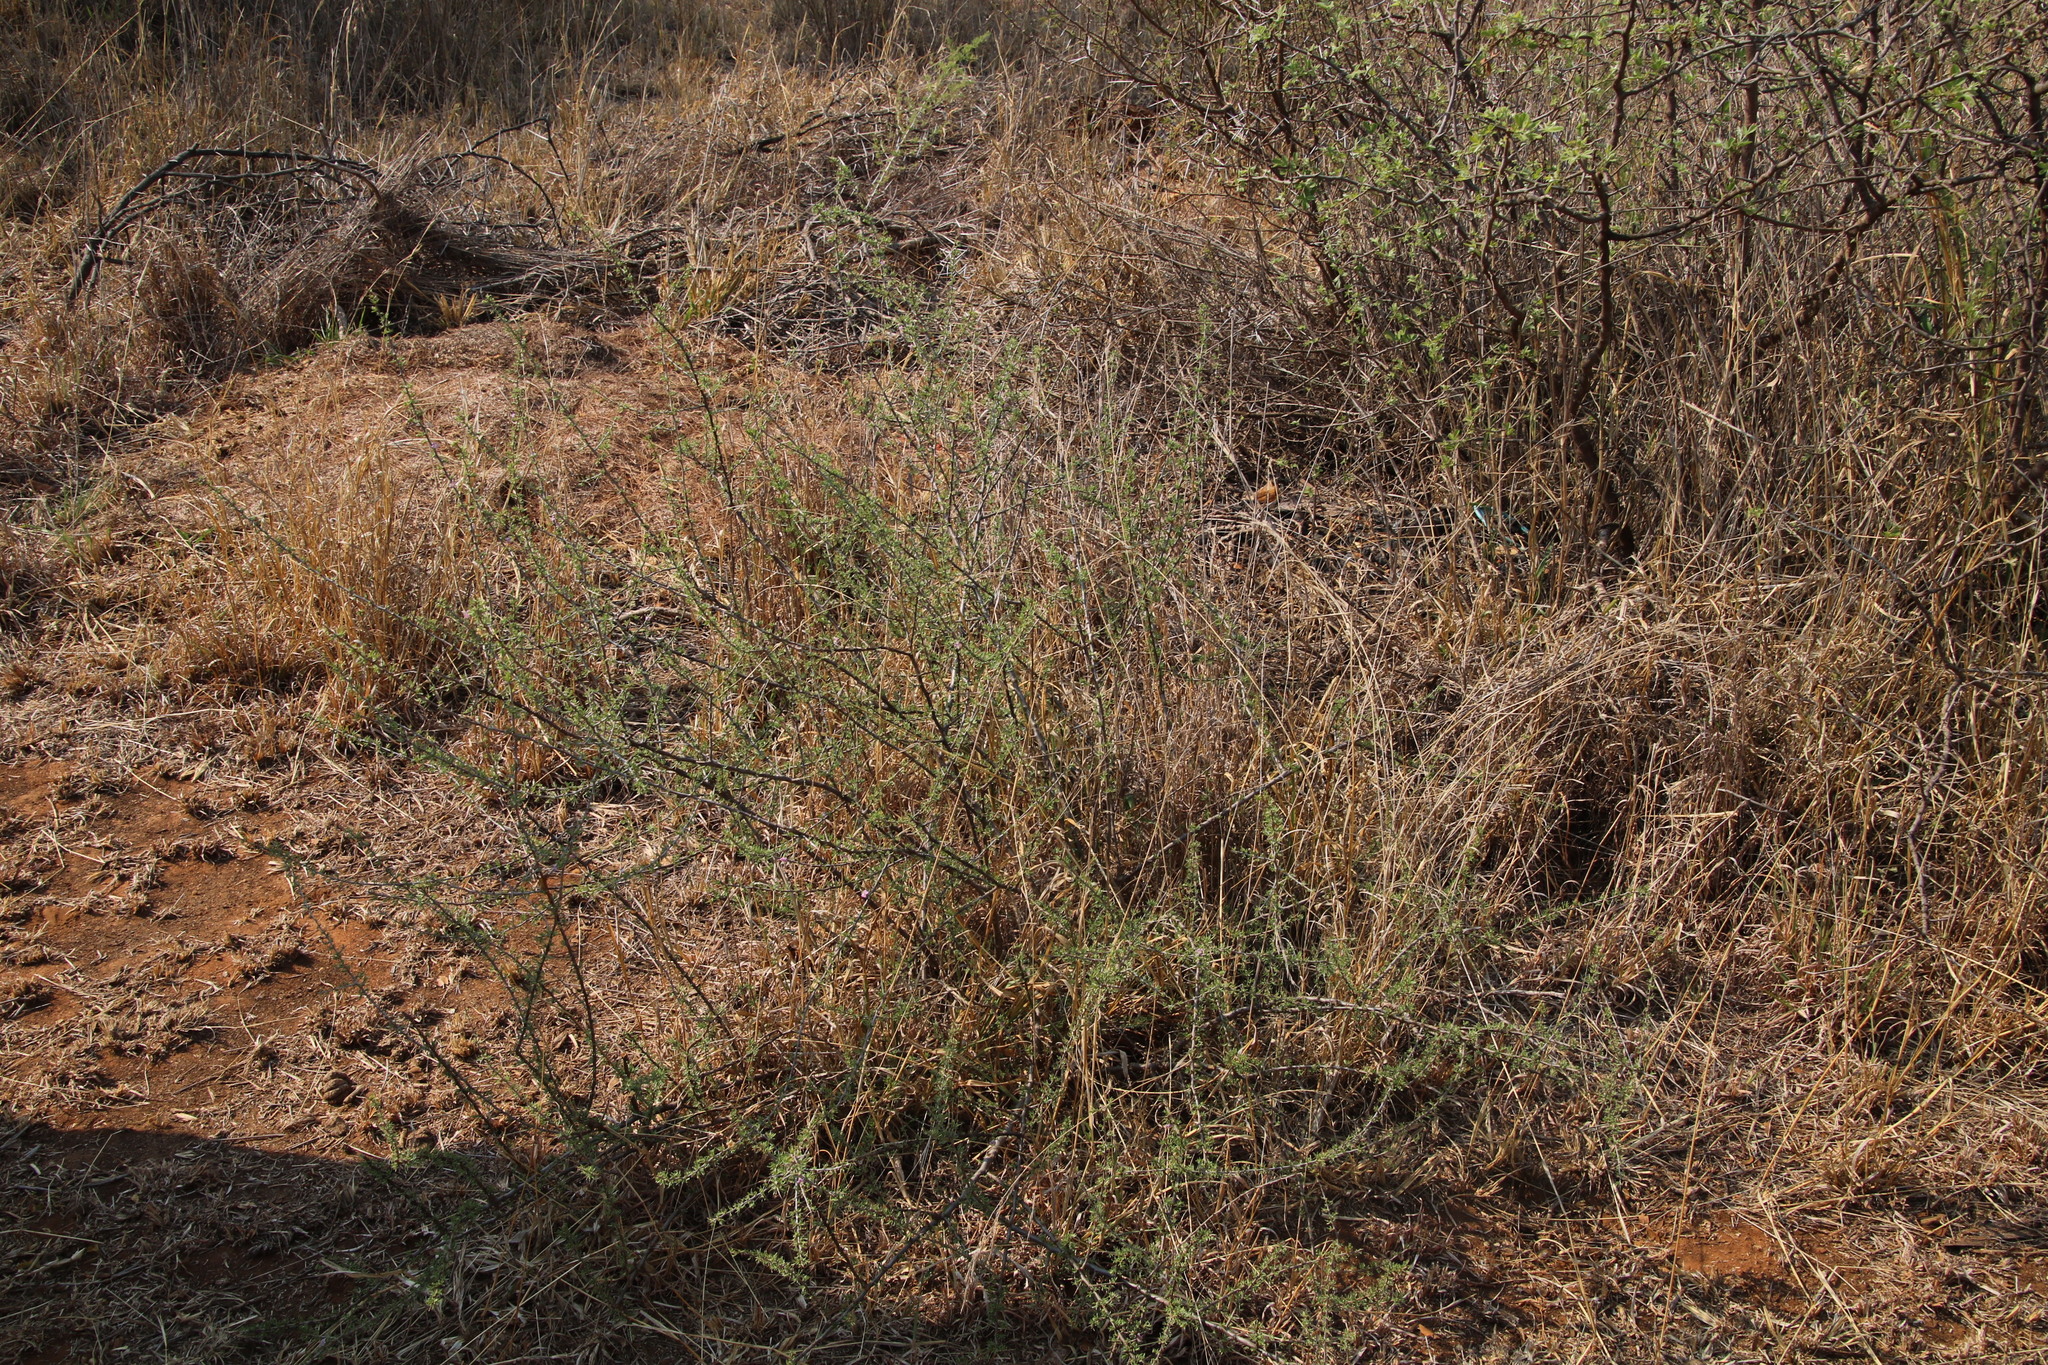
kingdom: Plantae
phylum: Tracheophyta
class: Magnoliopsida
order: Solanales
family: Solanaceae
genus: Lycium
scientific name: Lycium cinereum
